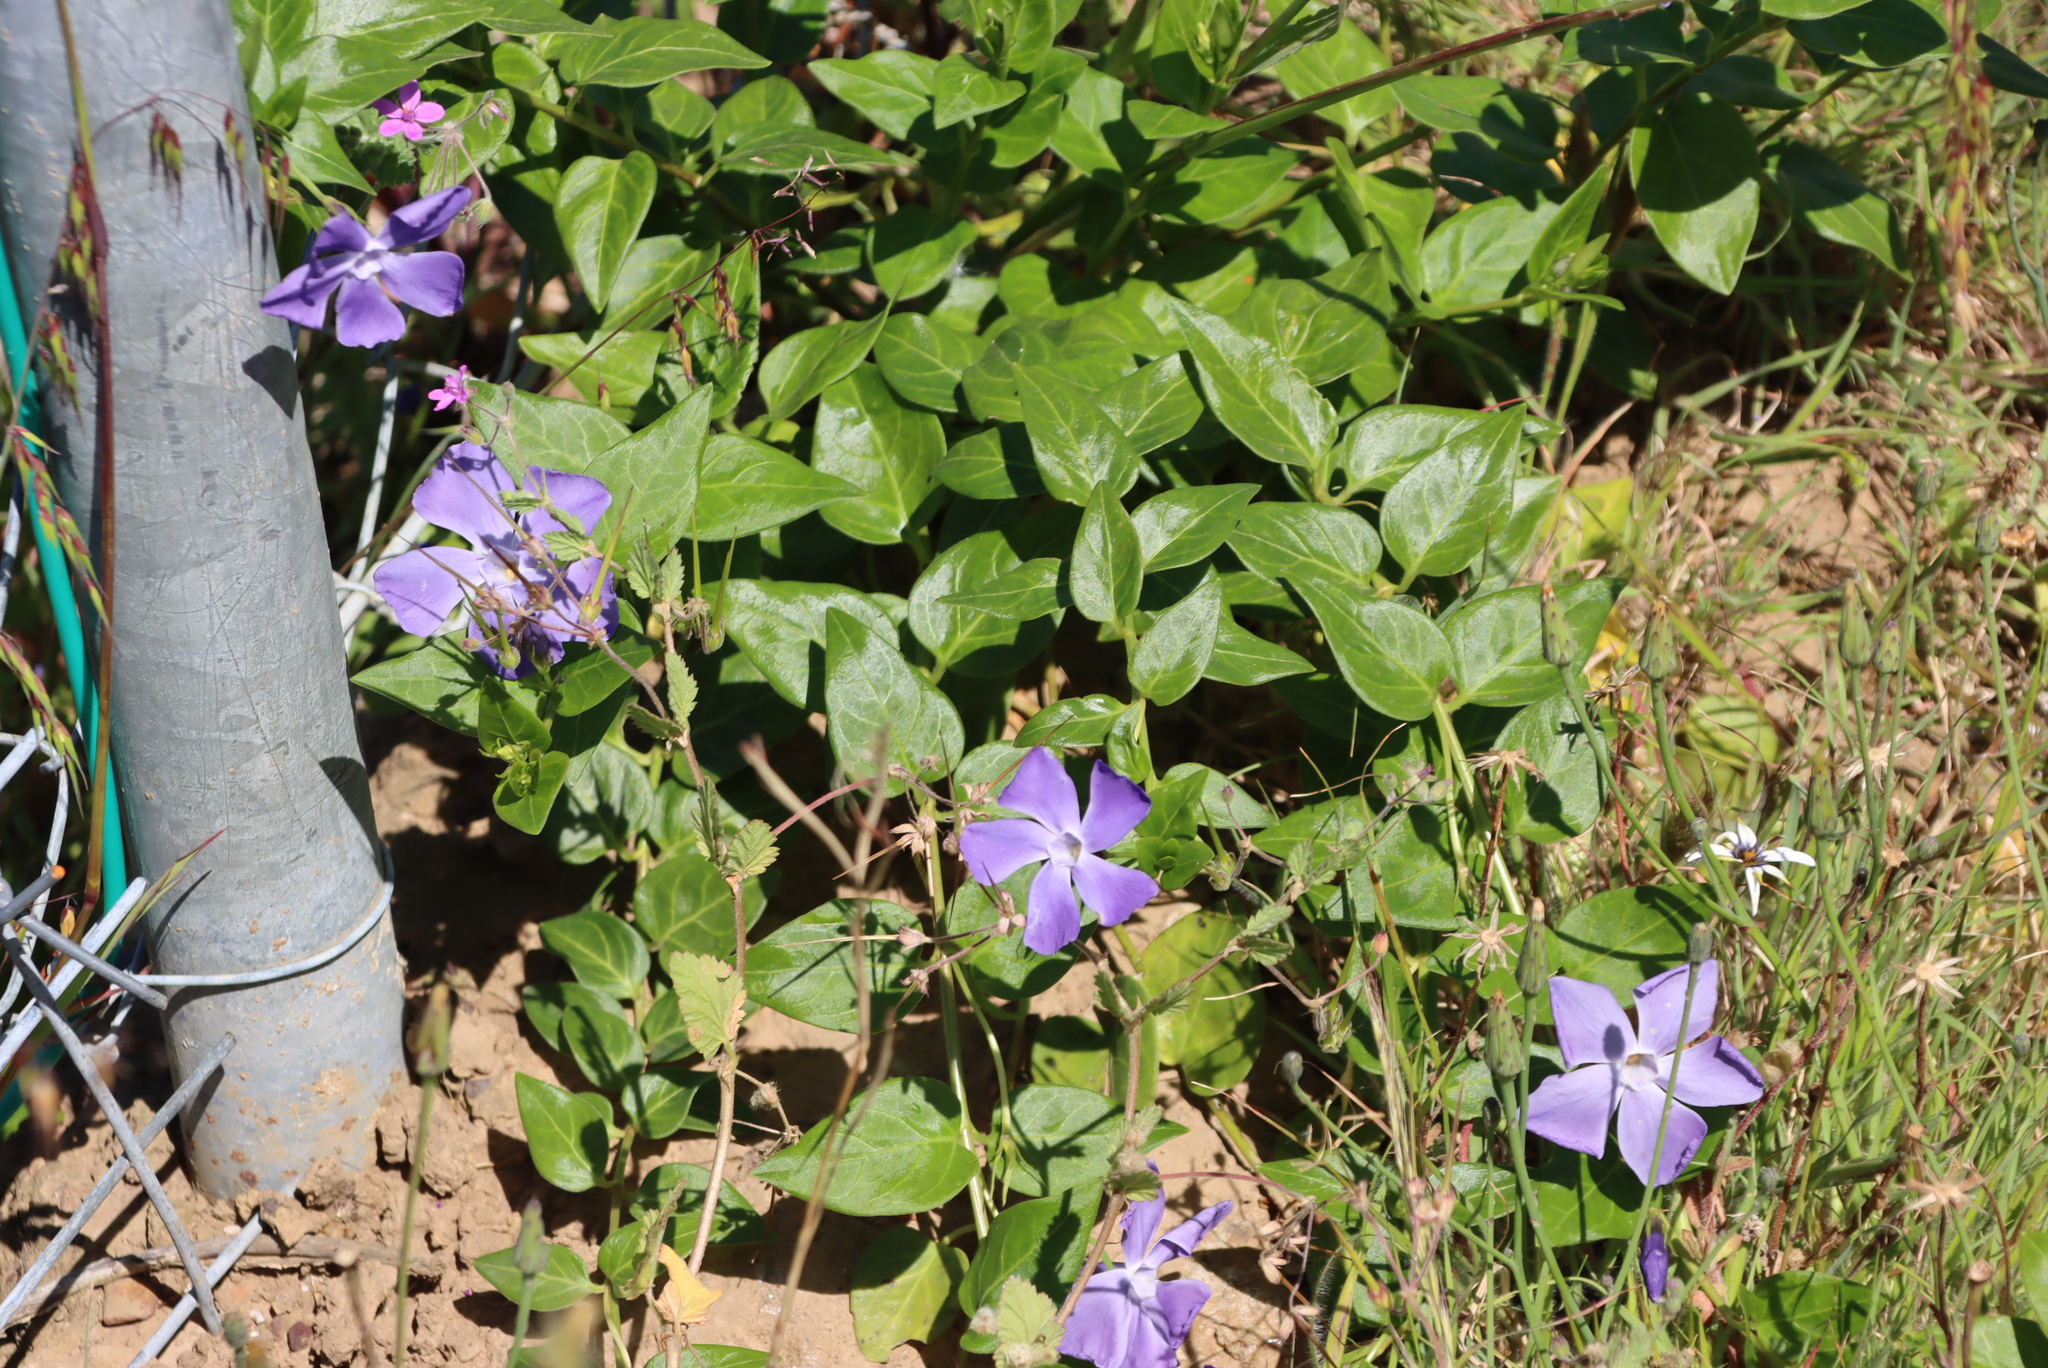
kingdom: Plantae
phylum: Tracheophyta
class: Magnoliopsida
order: Gentianales
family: Apocynaceae
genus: Vinca
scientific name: Vinca major
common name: Greater periwinkle
